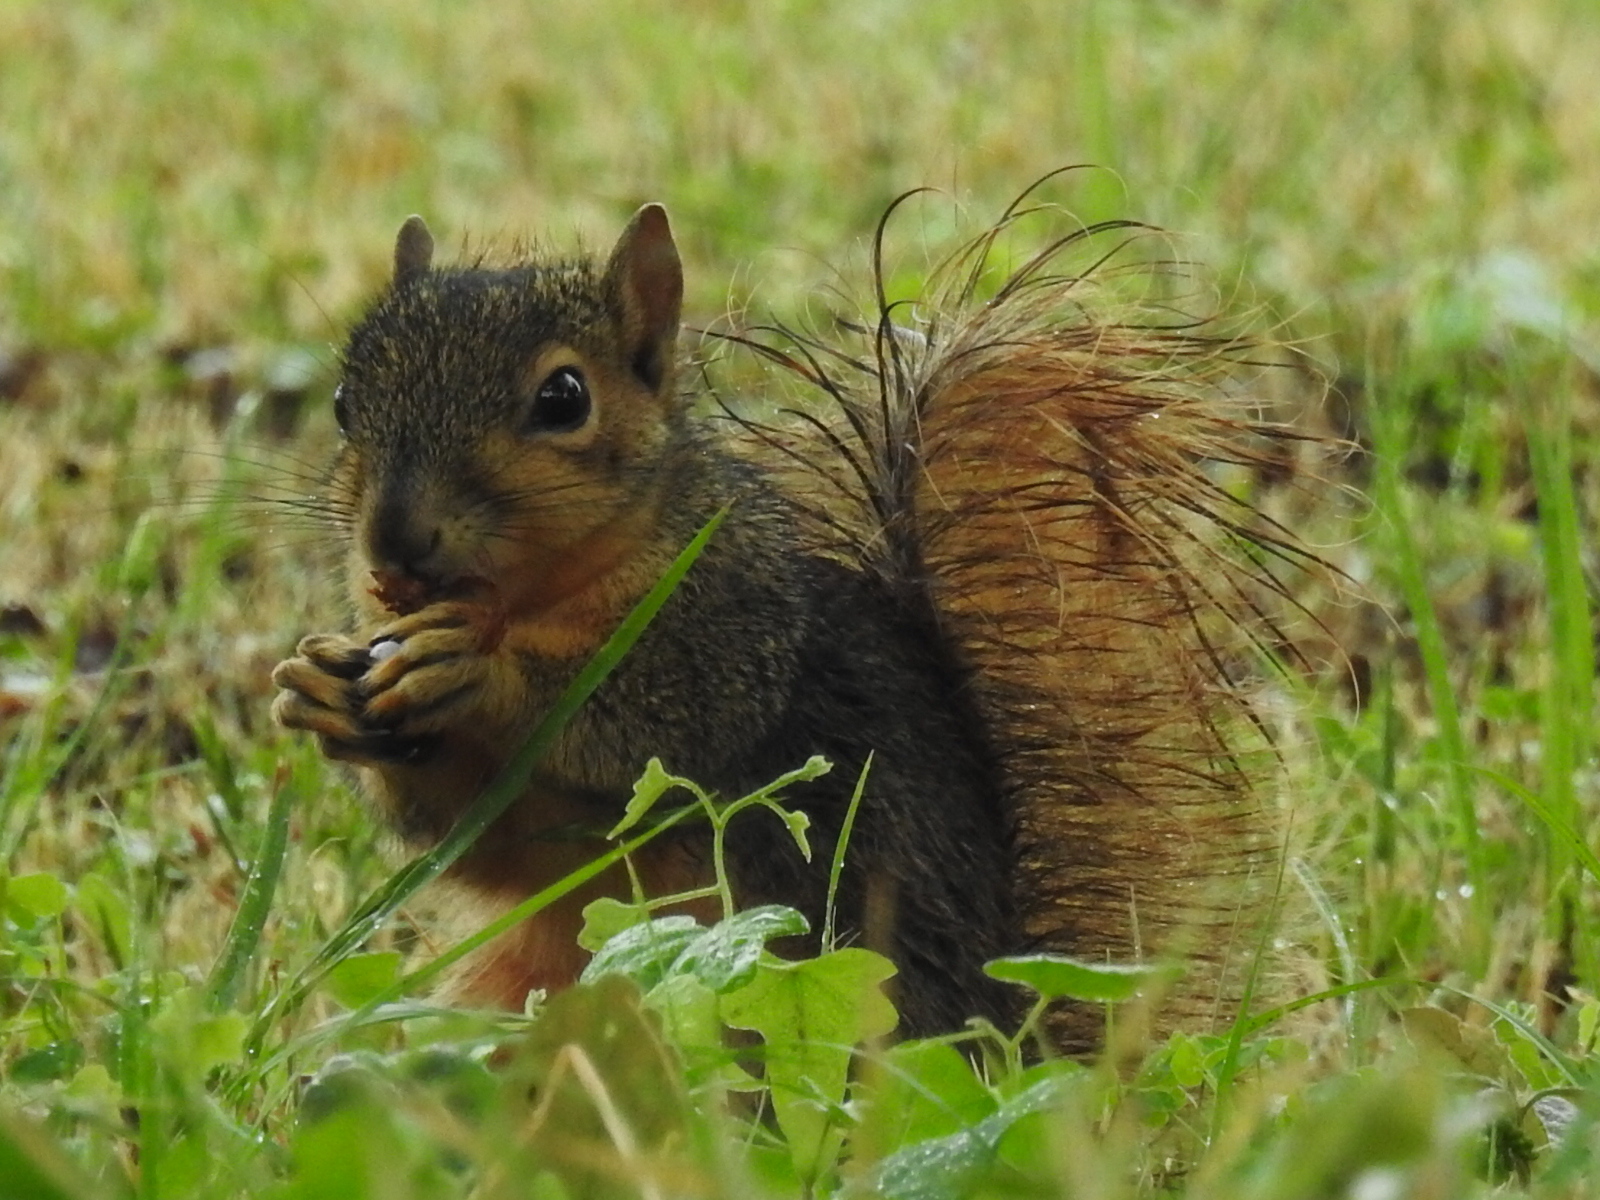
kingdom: Animalia
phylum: Chordata
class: Mammalia
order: Rodentia
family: Sciuridae
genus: Sciurus
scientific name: Sciurus niger
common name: Fox squirrel
